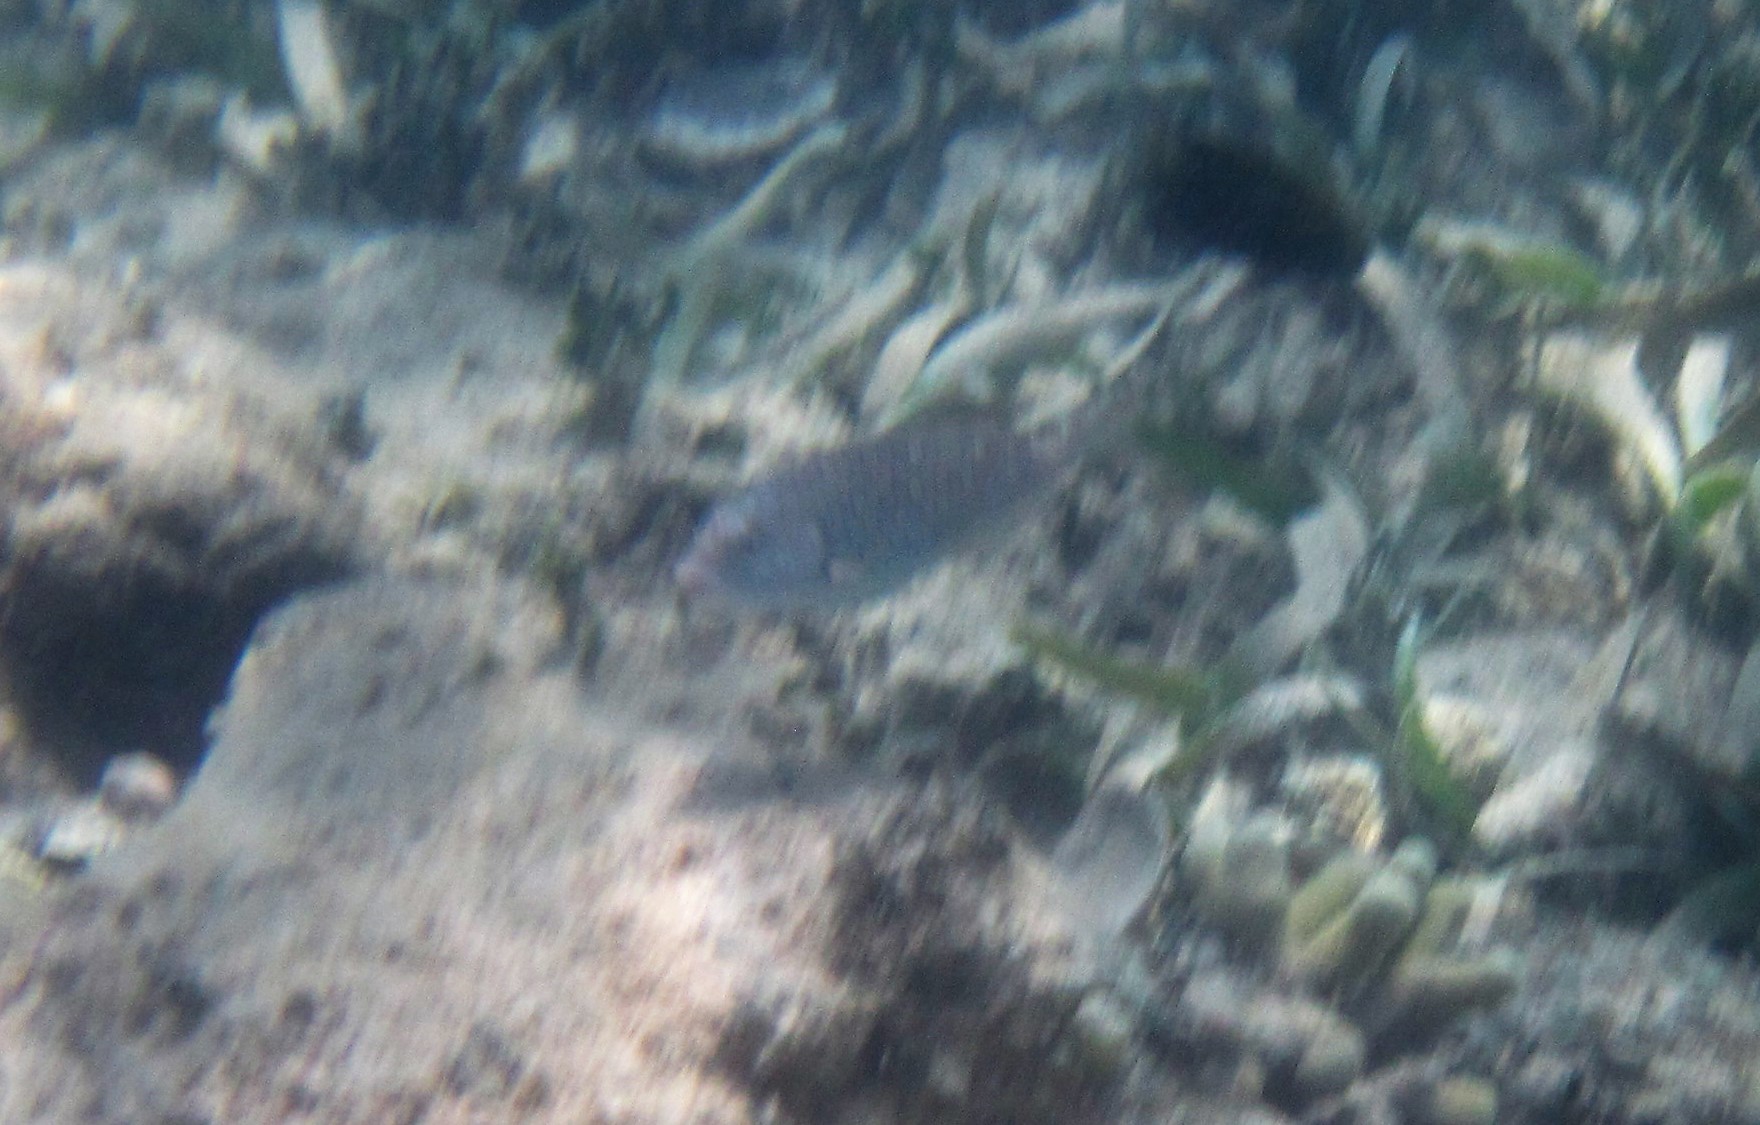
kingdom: Animalia
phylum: Chordata
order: Perciformes
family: Scaridae
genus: Sparisoma
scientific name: Sparisoma
